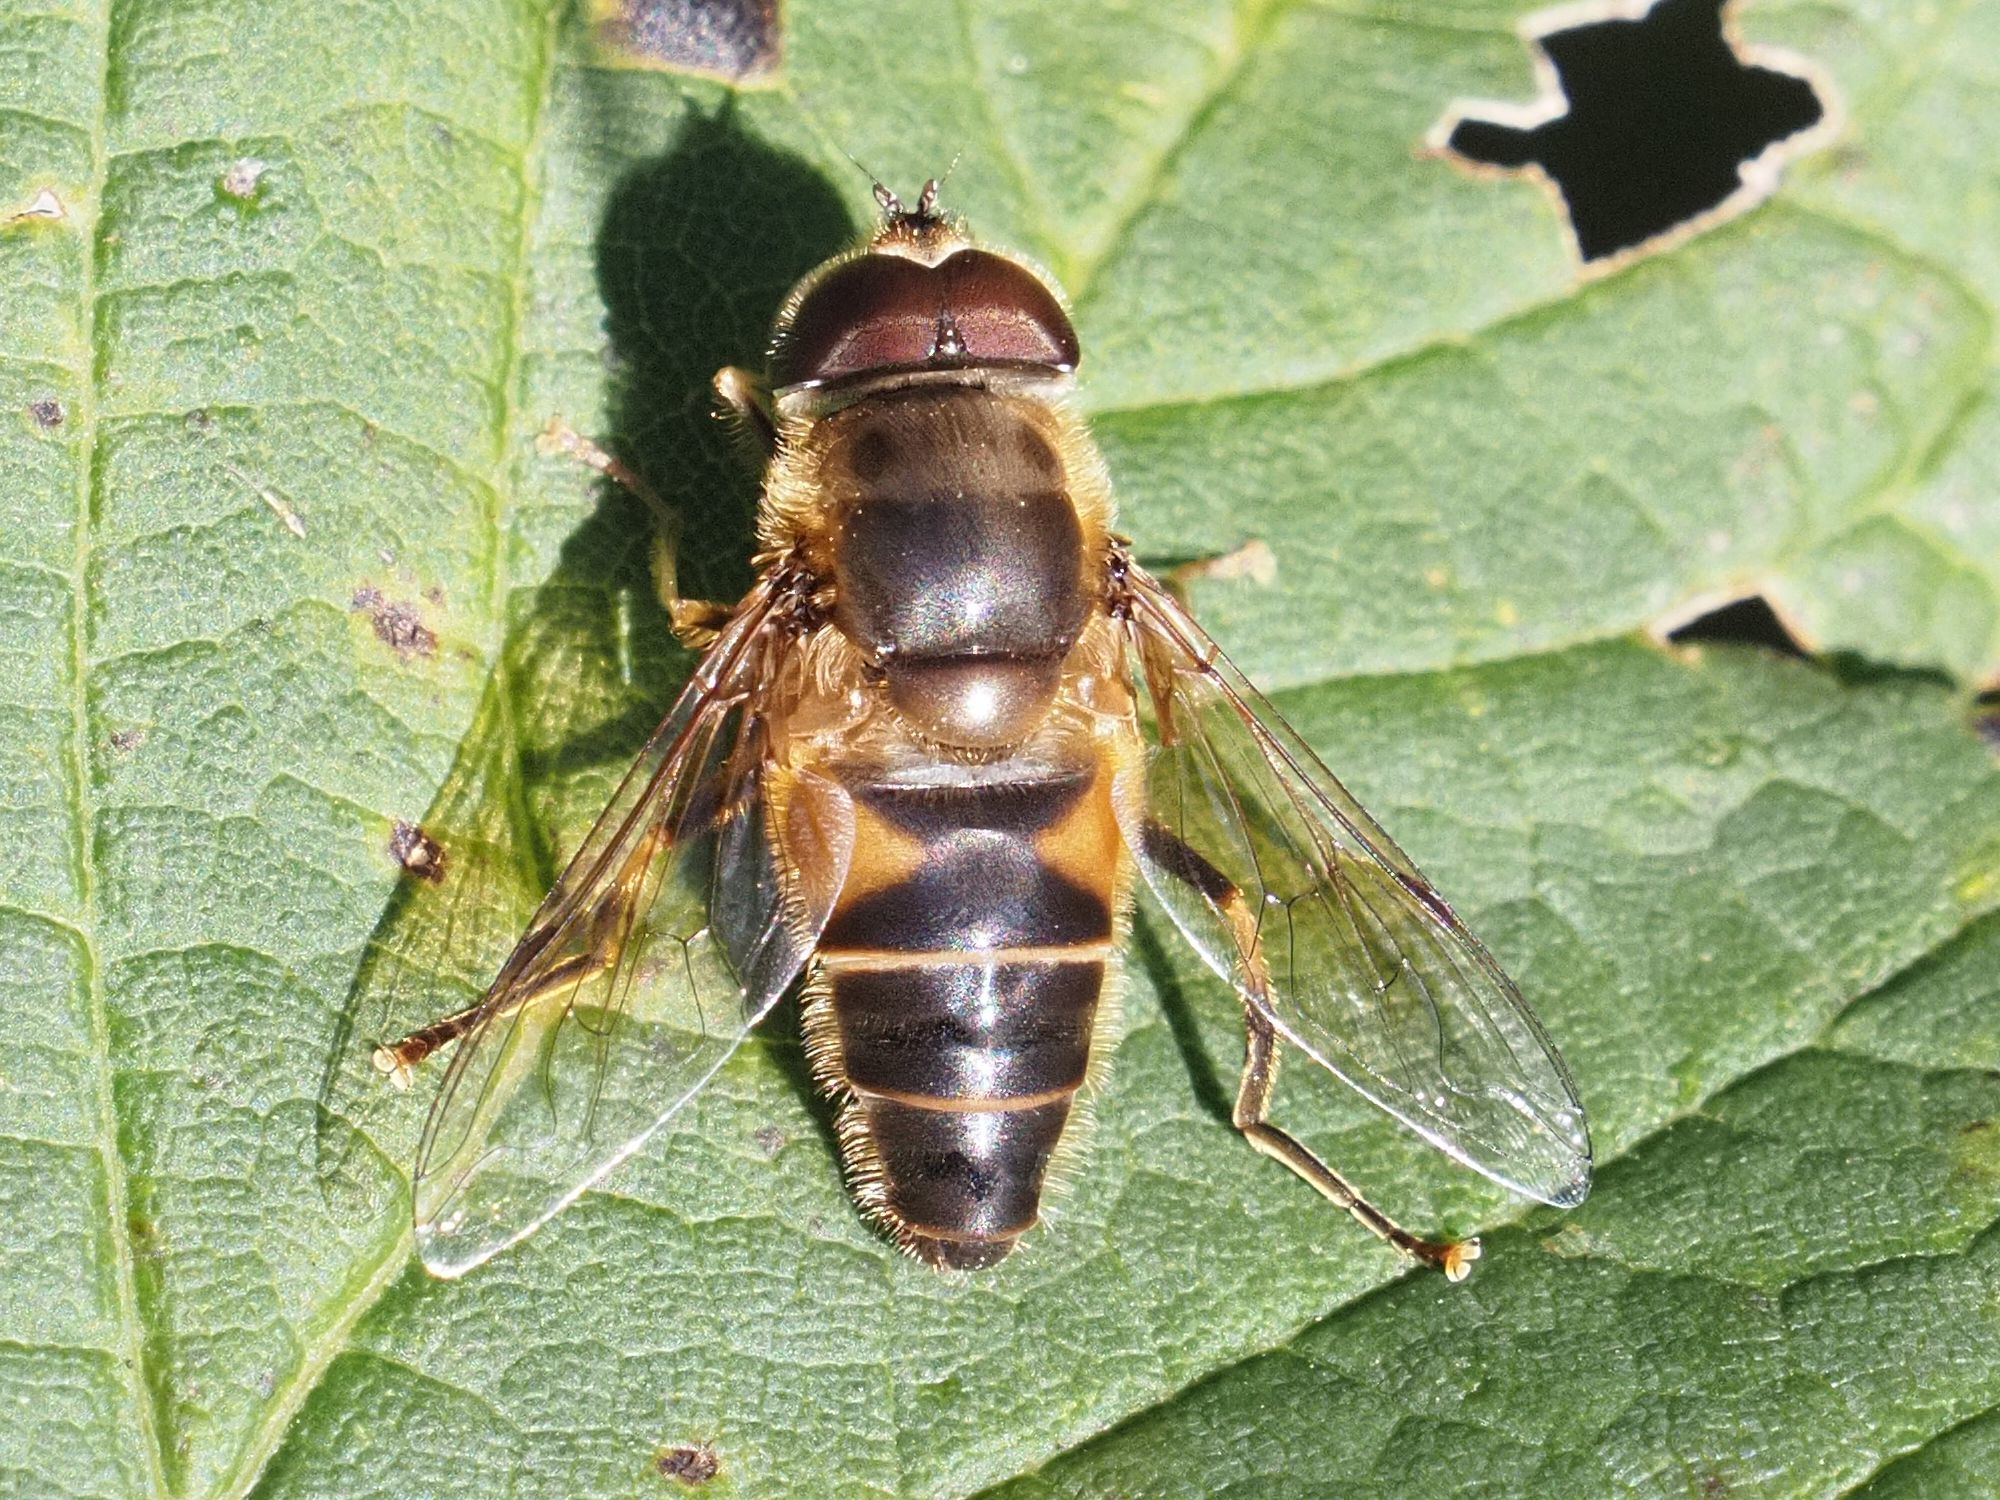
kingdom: Animalia
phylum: Arthropoda
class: Insecta
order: Diptera
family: Syrphidae
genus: Eristalis
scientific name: Eristalis pertinax
